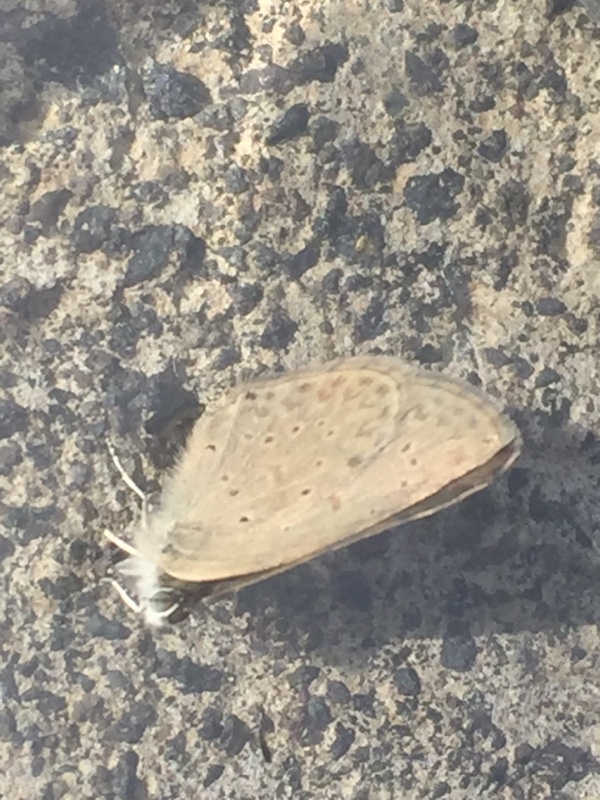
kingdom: Animalia
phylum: Arthropoda
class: Insecta
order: Lepidoptera
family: Lycaenidae
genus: Zizeeria
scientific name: Zizeeria knysna
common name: African grass blue
